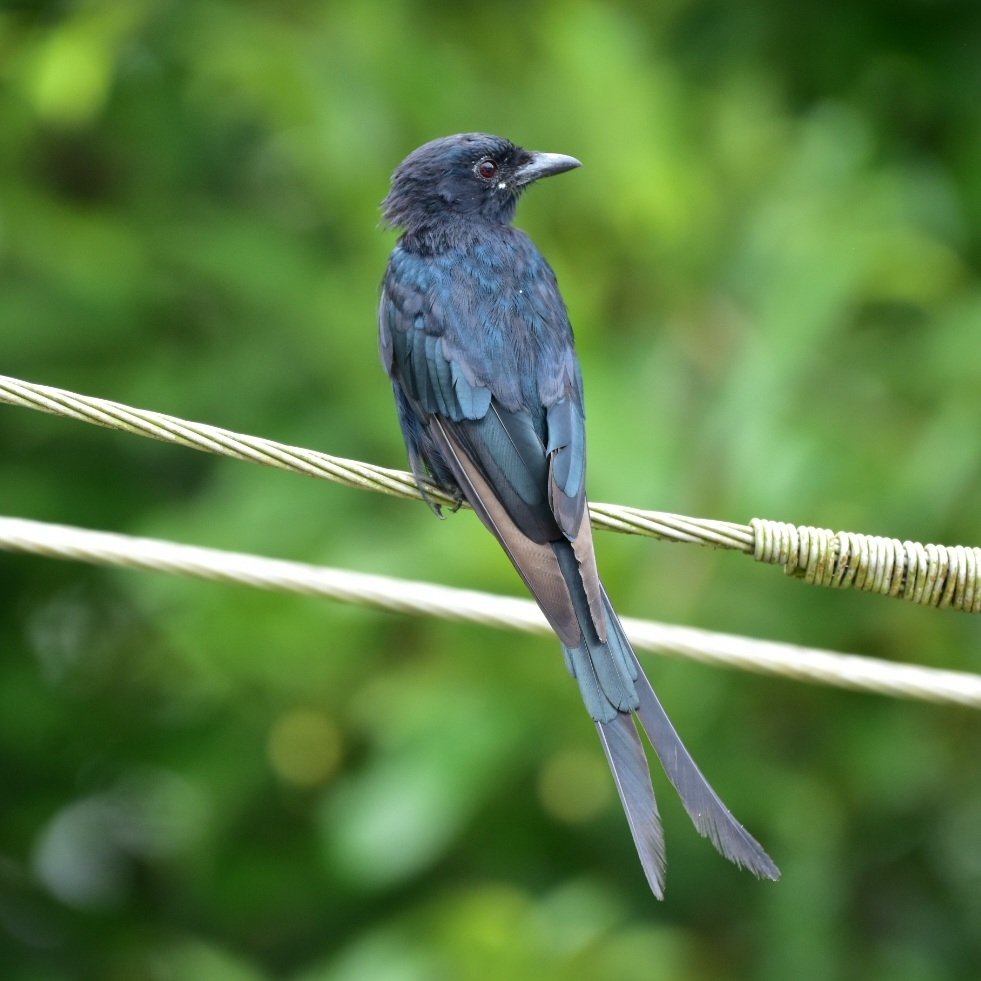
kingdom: Animalia
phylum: Chordata
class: Aves
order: Passeriformes
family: Dicruridae
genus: Dicrurus
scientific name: Dicrurus macrocercus
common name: Black drongo
